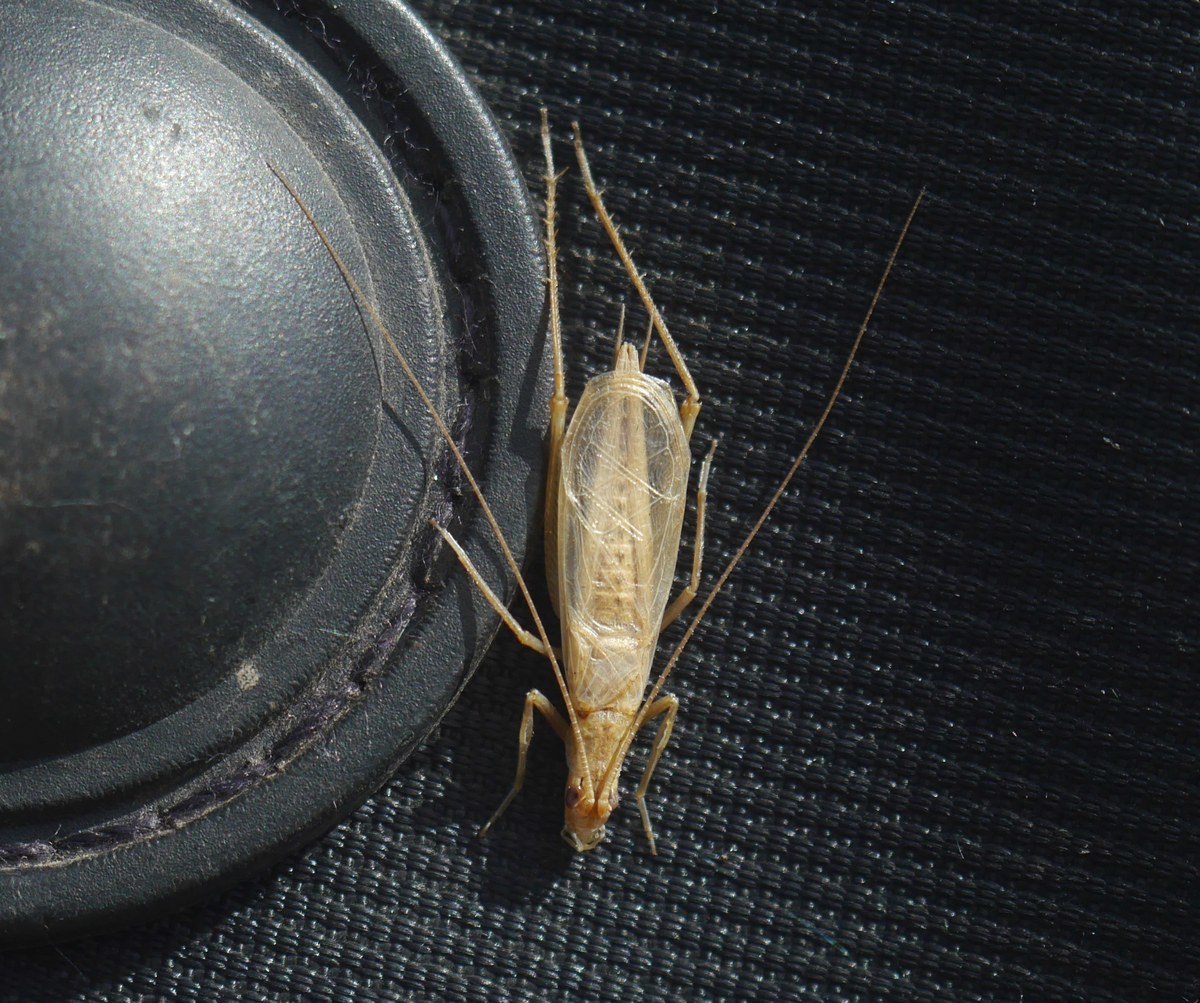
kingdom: Animalia
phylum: Arthropoda
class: Insecta
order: Orthoptera
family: Gryllidae
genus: Oecanthus
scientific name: Oecanthus pellucens
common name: Tree-cricket
